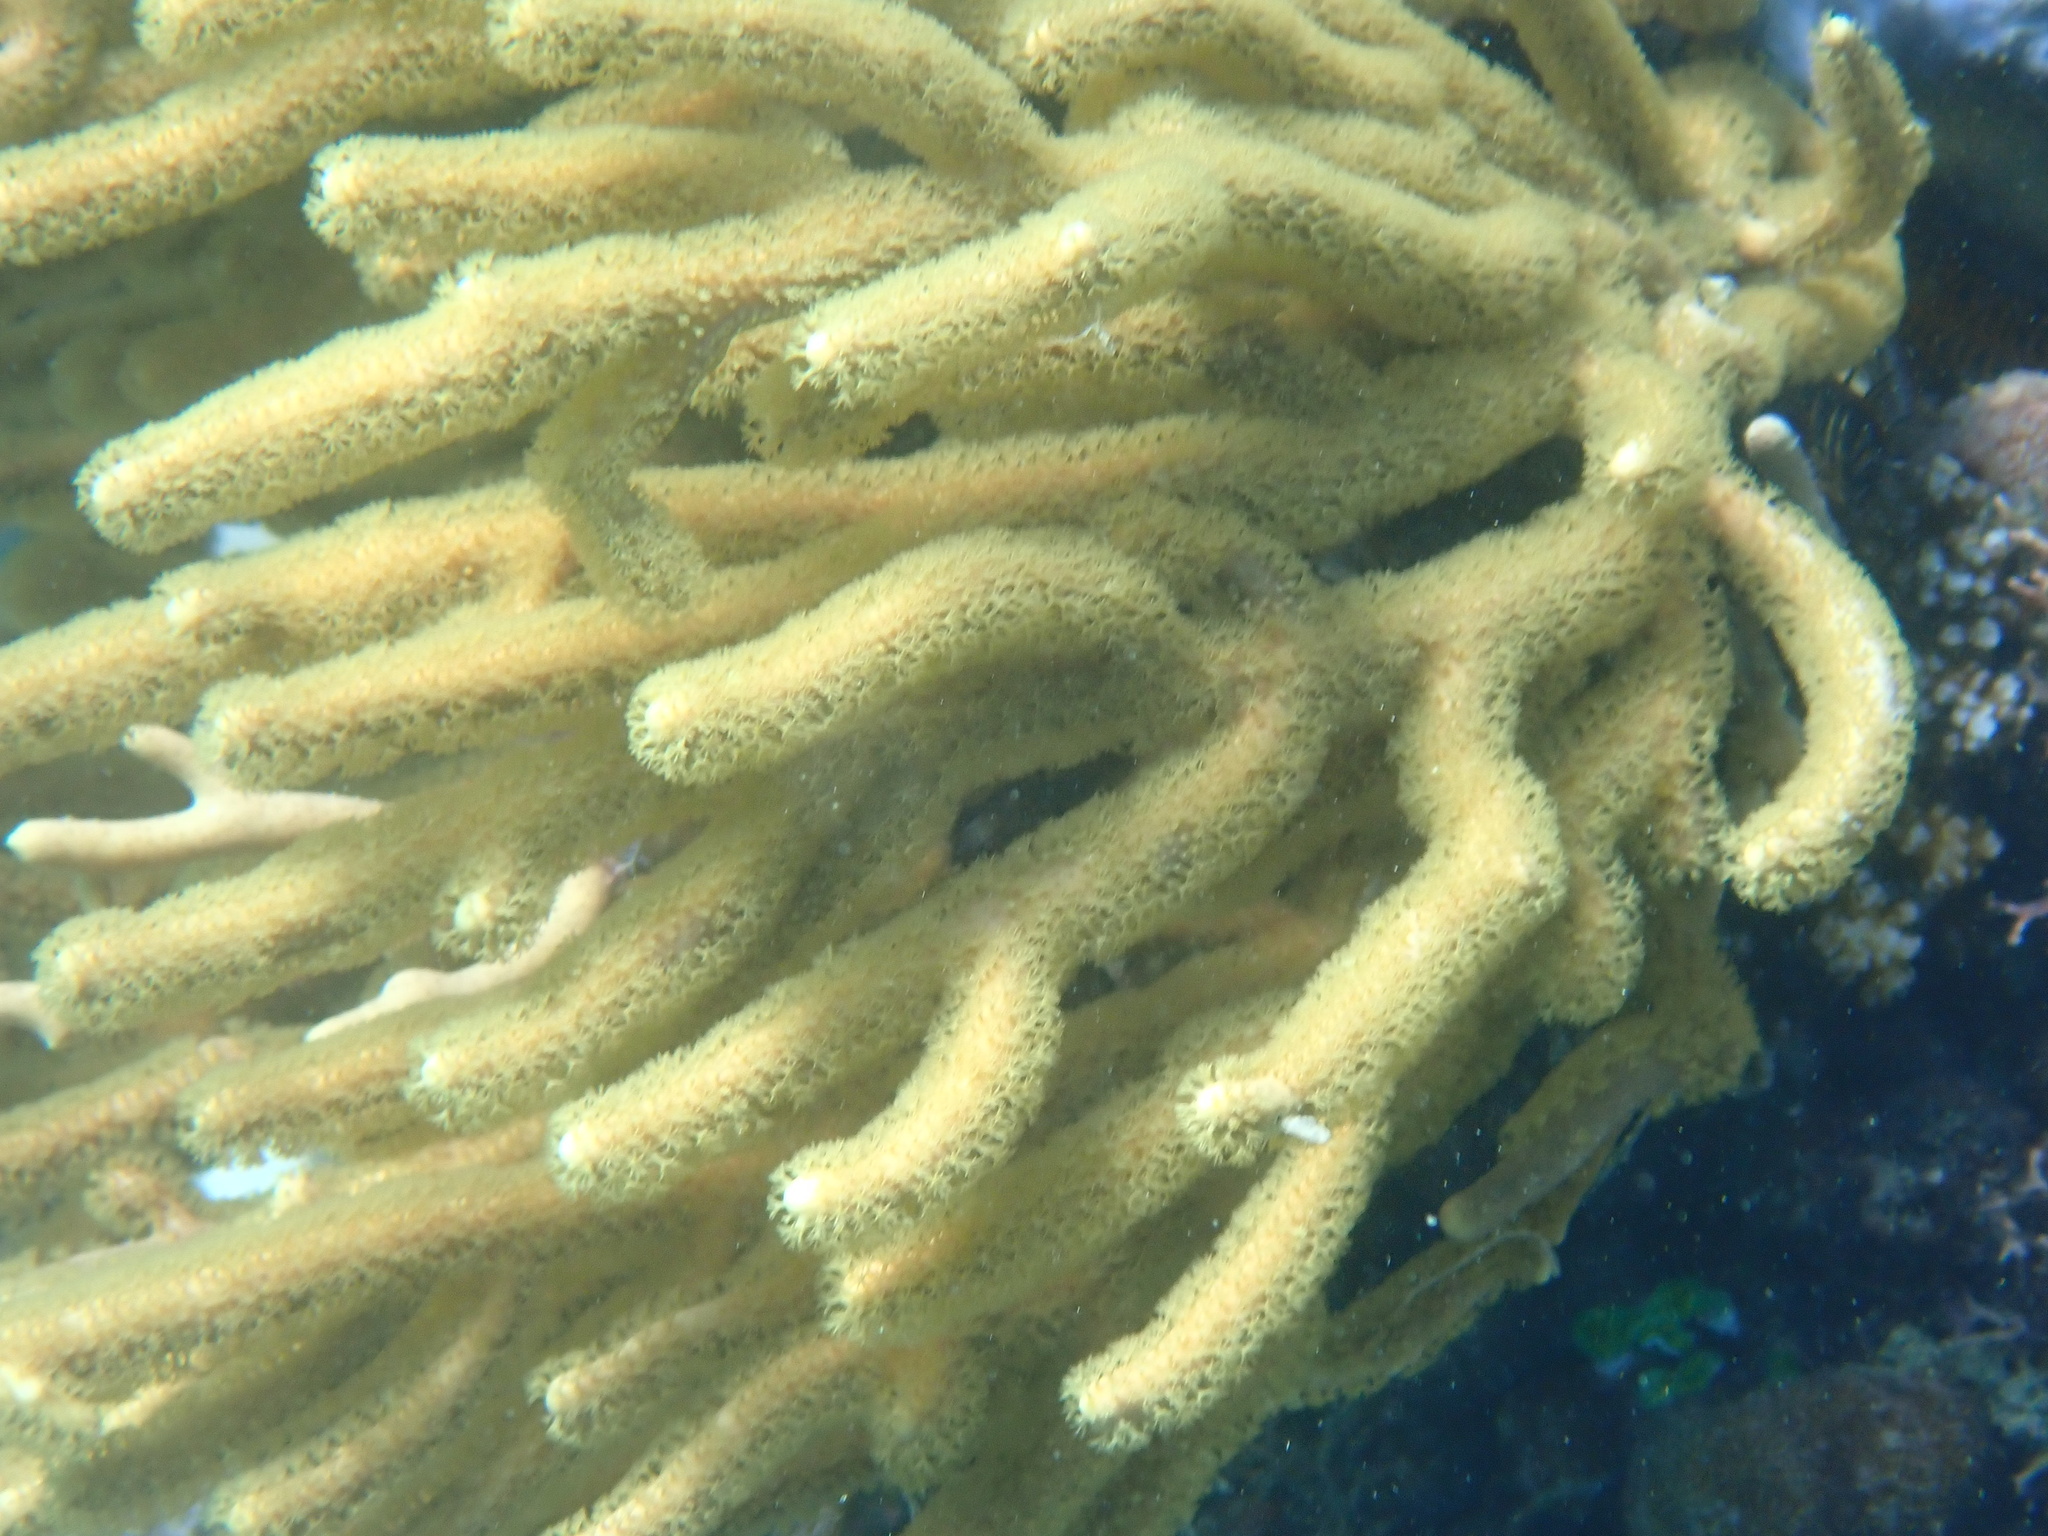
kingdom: Animalia
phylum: Cnidaria
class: Anthozoa
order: Malacalcyonacea
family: Isididae
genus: Isis
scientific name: Isis hippuris
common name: Golden sea fan
